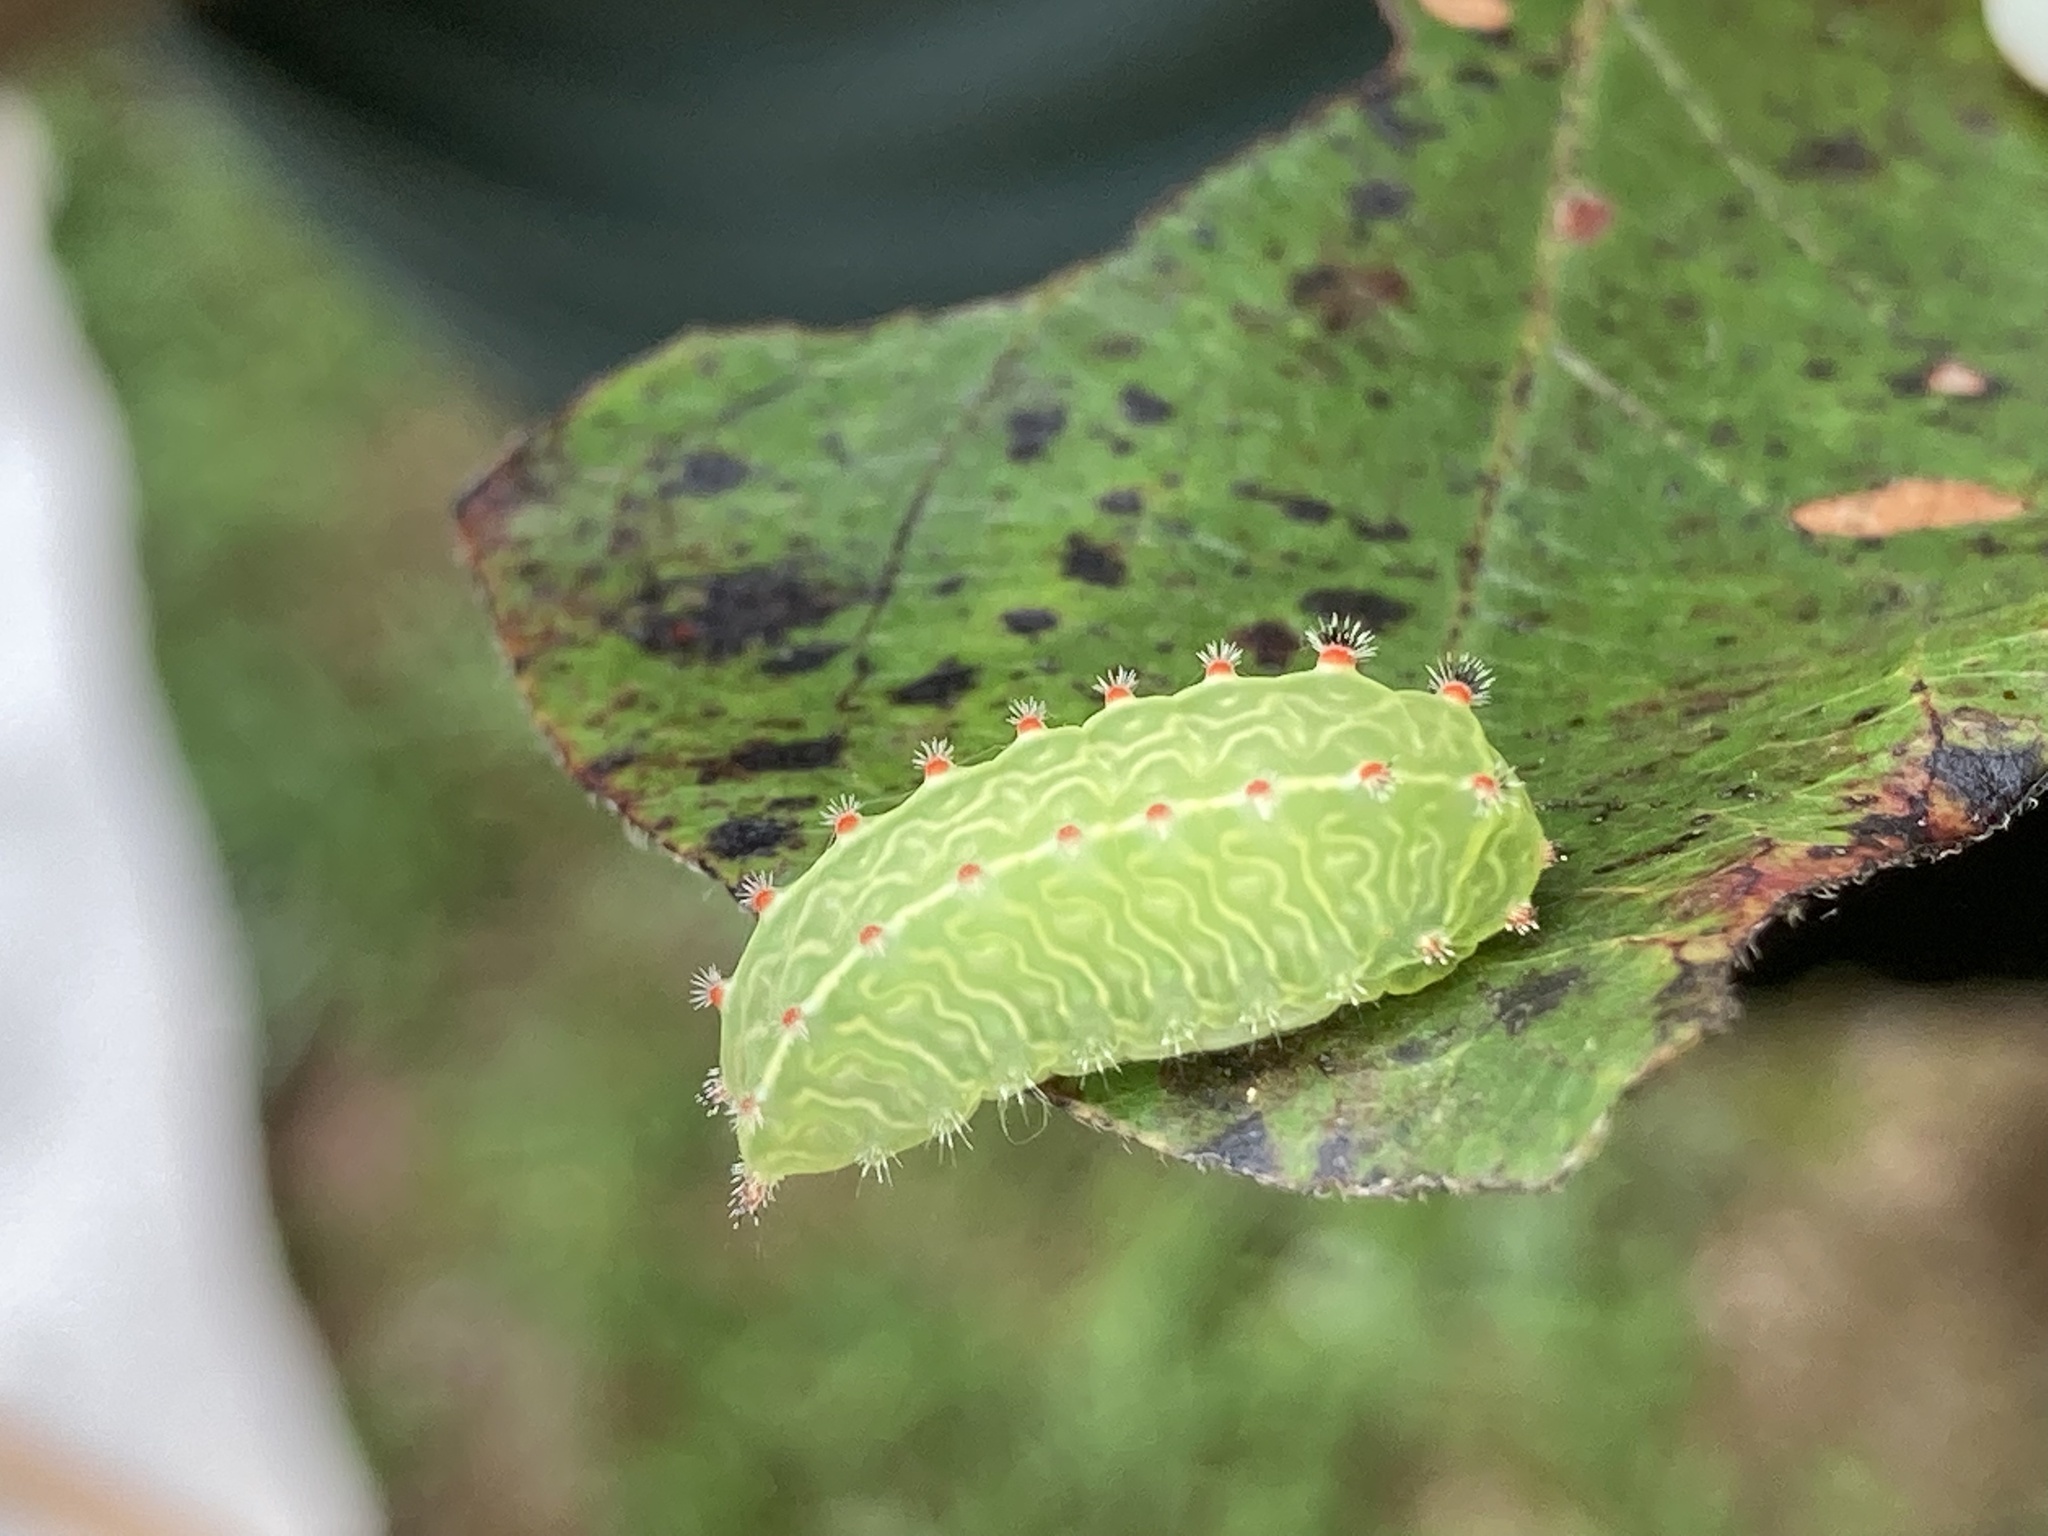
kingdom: Animalia
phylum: Arthropoda
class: Insecta
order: Lepidoptera
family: Limacodidae
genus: Natada
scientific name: Natada nasoni
